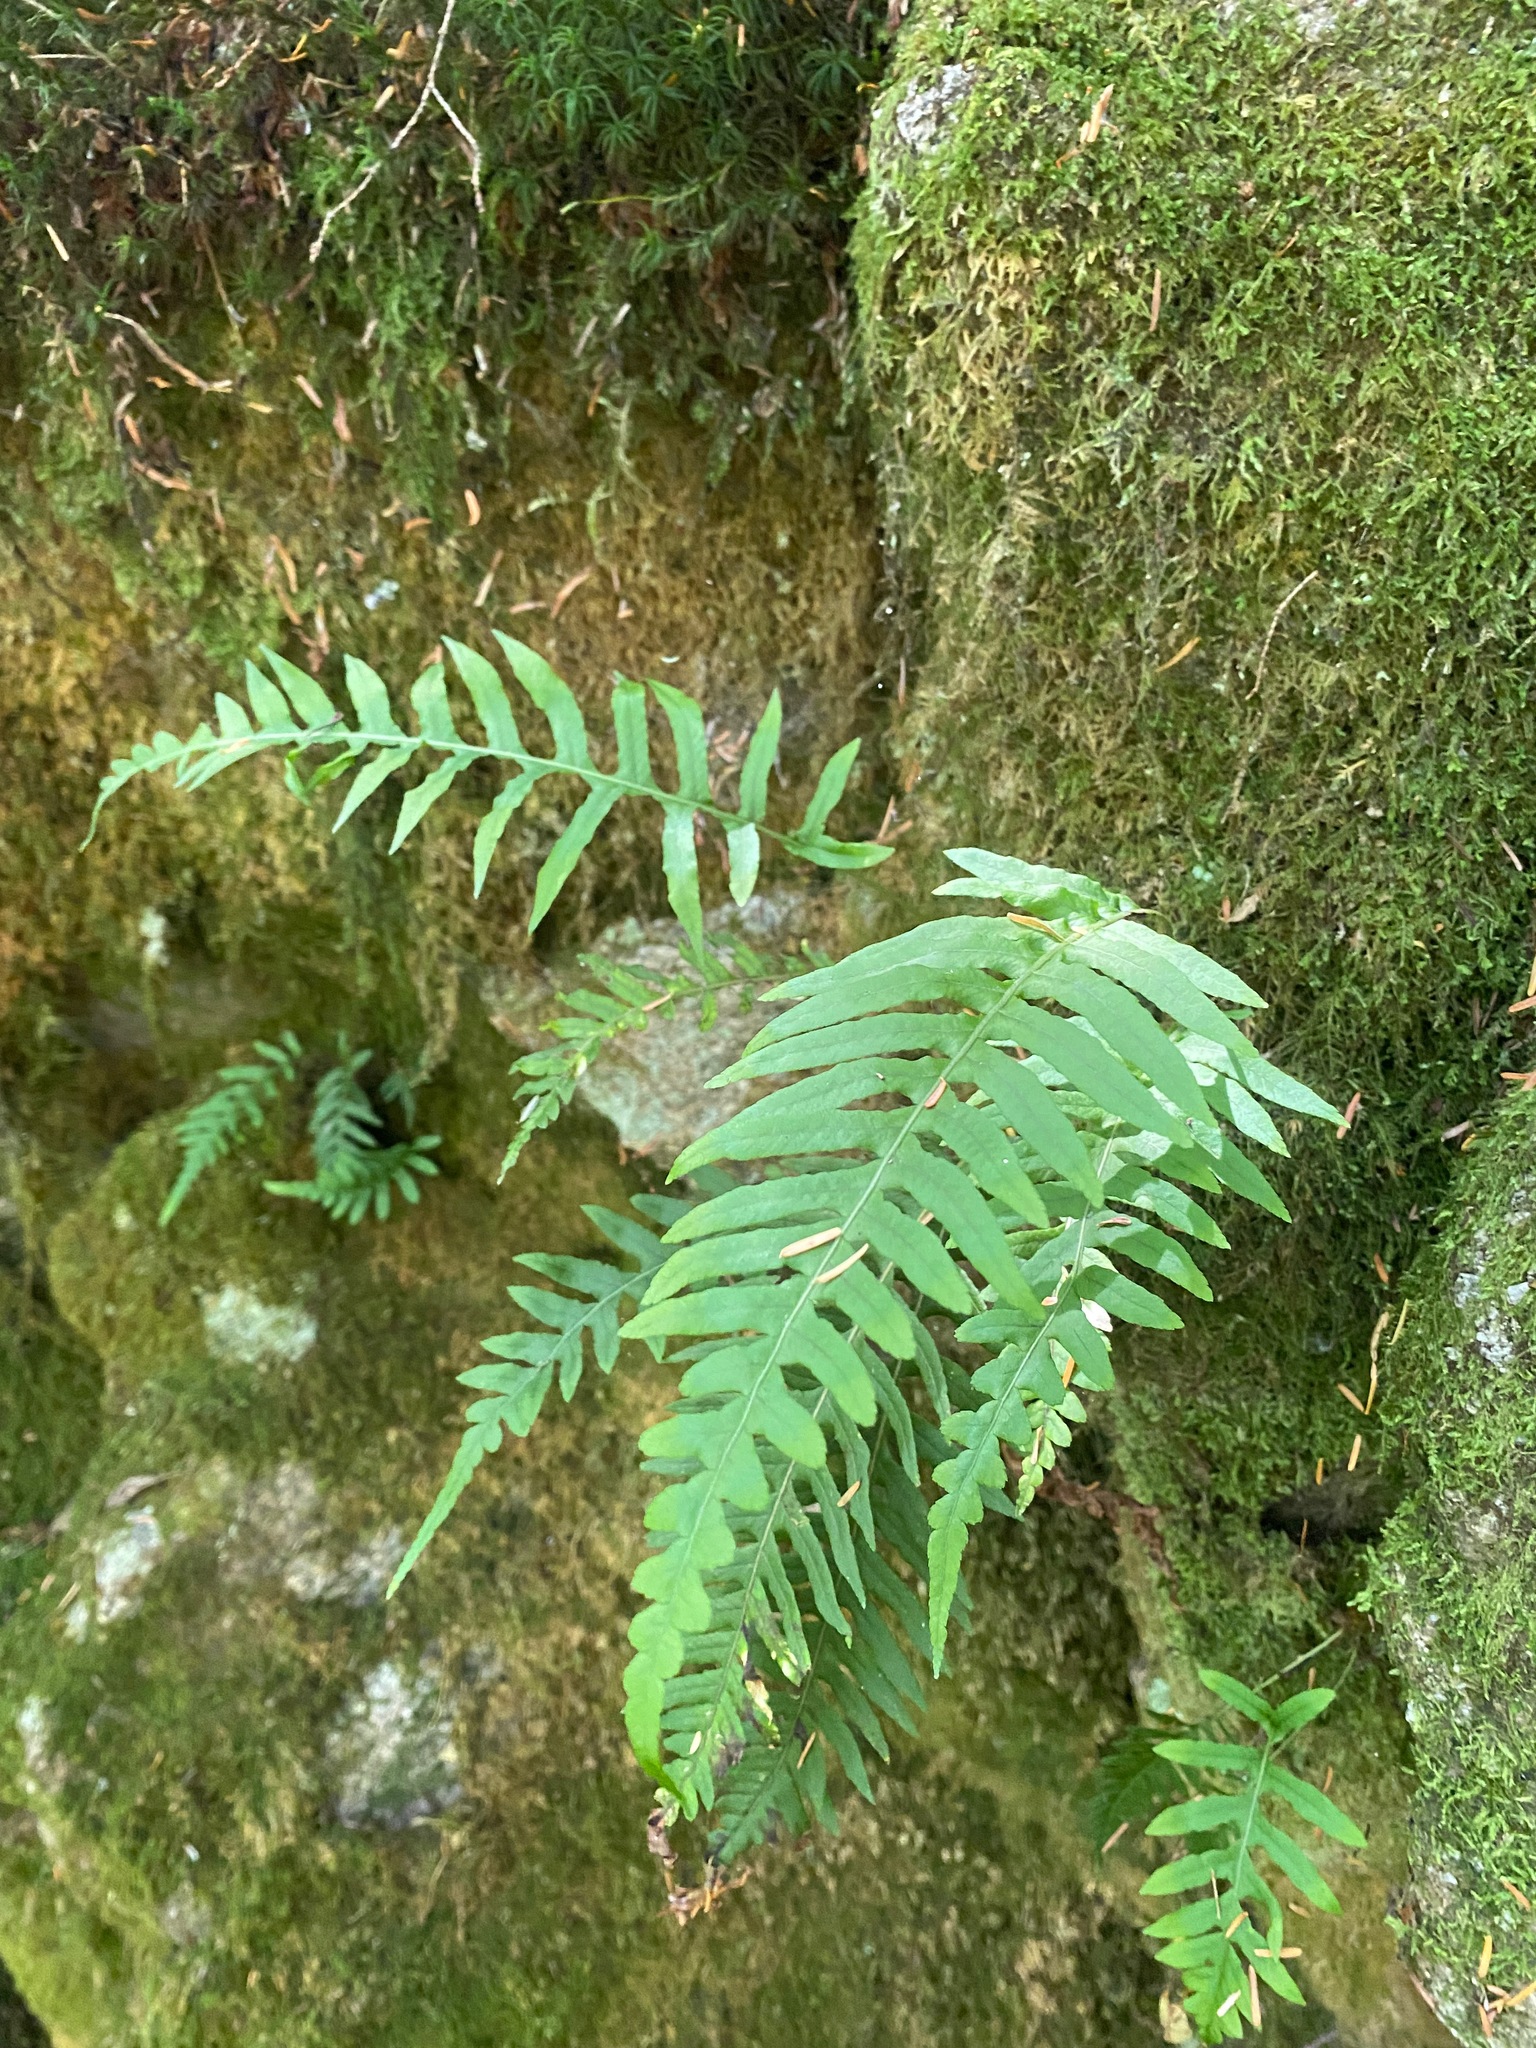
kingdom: Plantae
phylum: Tracheophyta
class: Polypodiopsida
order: Polypodiales
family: Polypodiaceae
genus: Polypodium
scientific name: Polypodium glycyrrhiza
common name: Licorice fern
